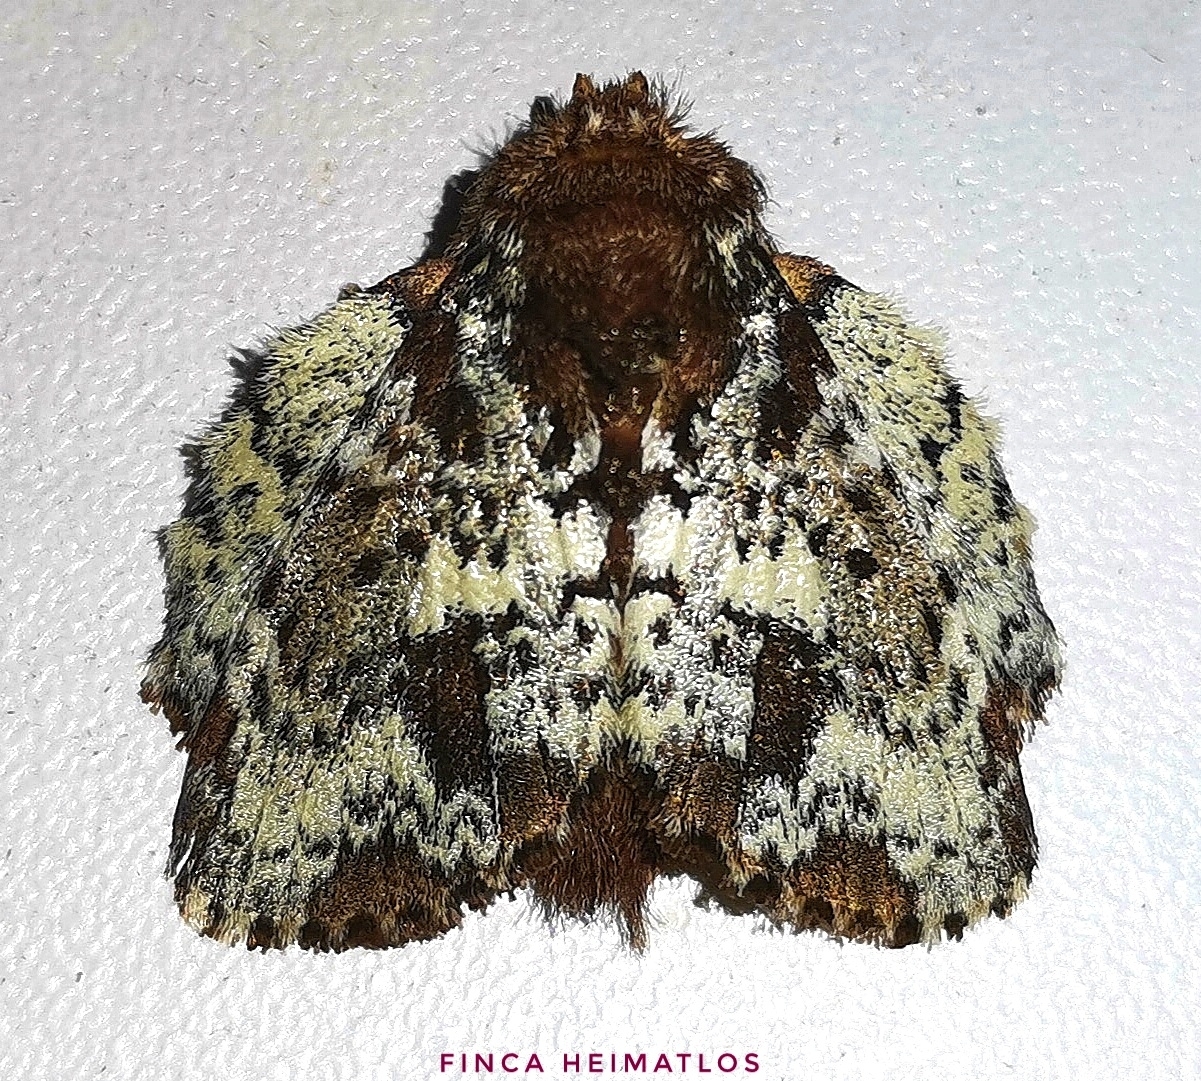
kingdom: Animalia
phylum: Arthropoda
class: Insecta
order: Lepidoptera
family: Lasiocampidae
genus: Euglyphis
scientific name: Euglyphis pira
